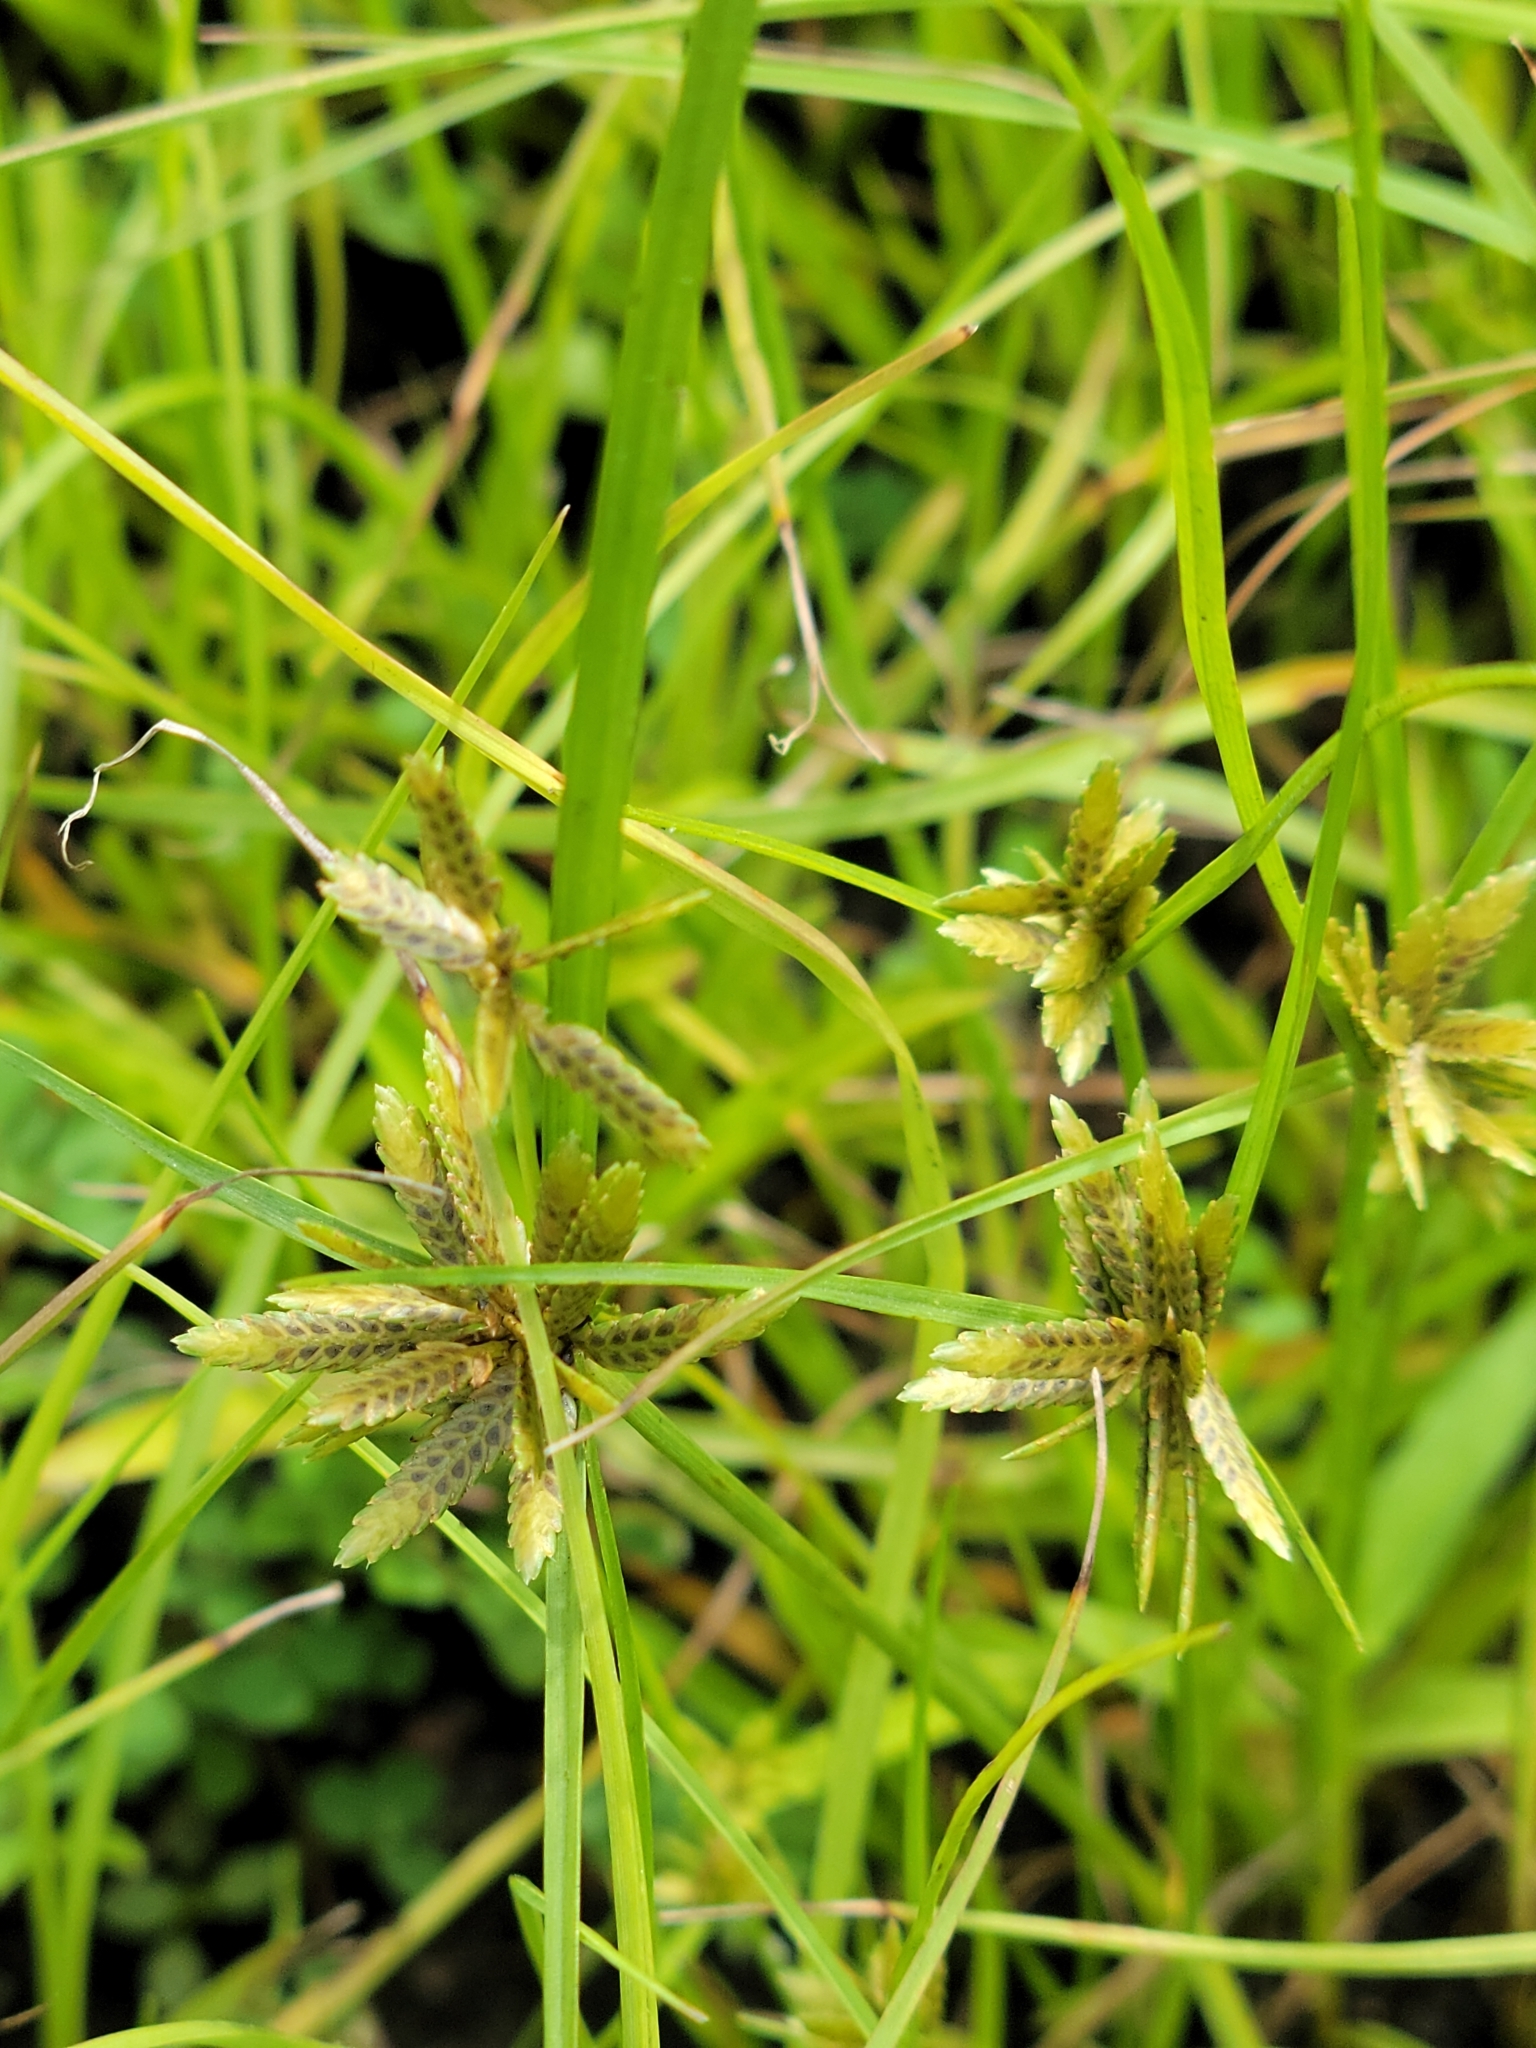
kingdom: Plantae
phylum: Tracheophyta
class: Liliopsida
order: Poales
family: Cyperaceae
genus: Cyperus
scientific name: Cyperus flavescens
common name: Yellow galingale
